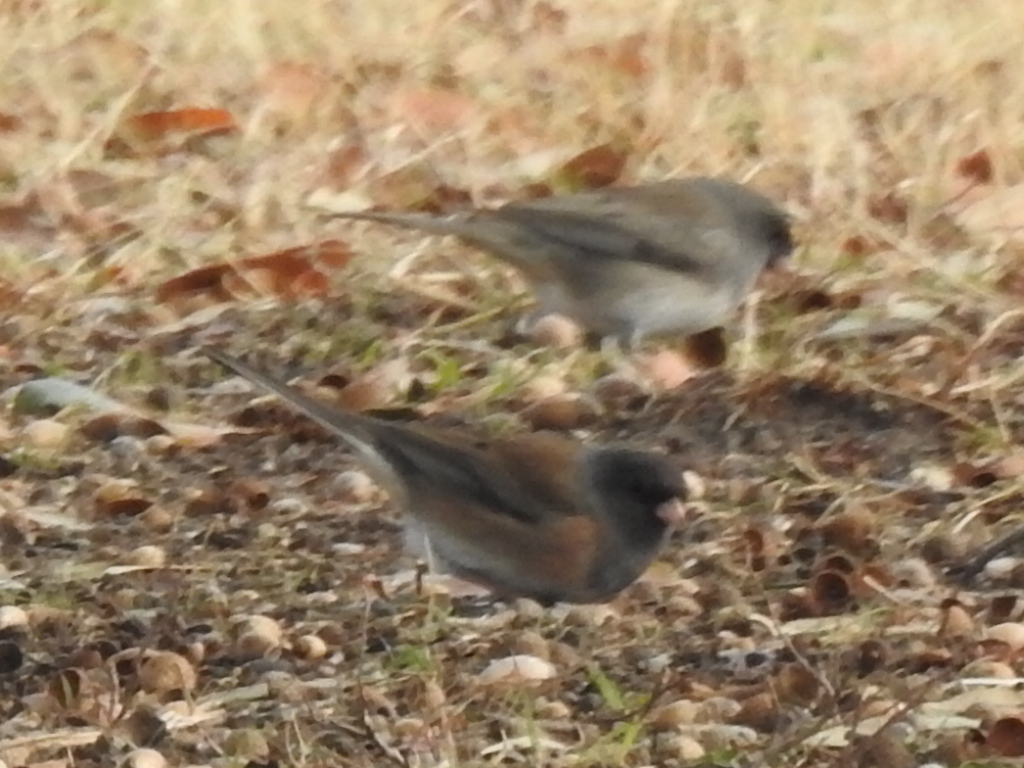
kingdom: Animalia
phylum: Chordata
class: Aves
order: Passeriformes
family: Passerellidae
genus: Junco
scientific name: Junco hyemalis
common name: Dark-eyed junco
